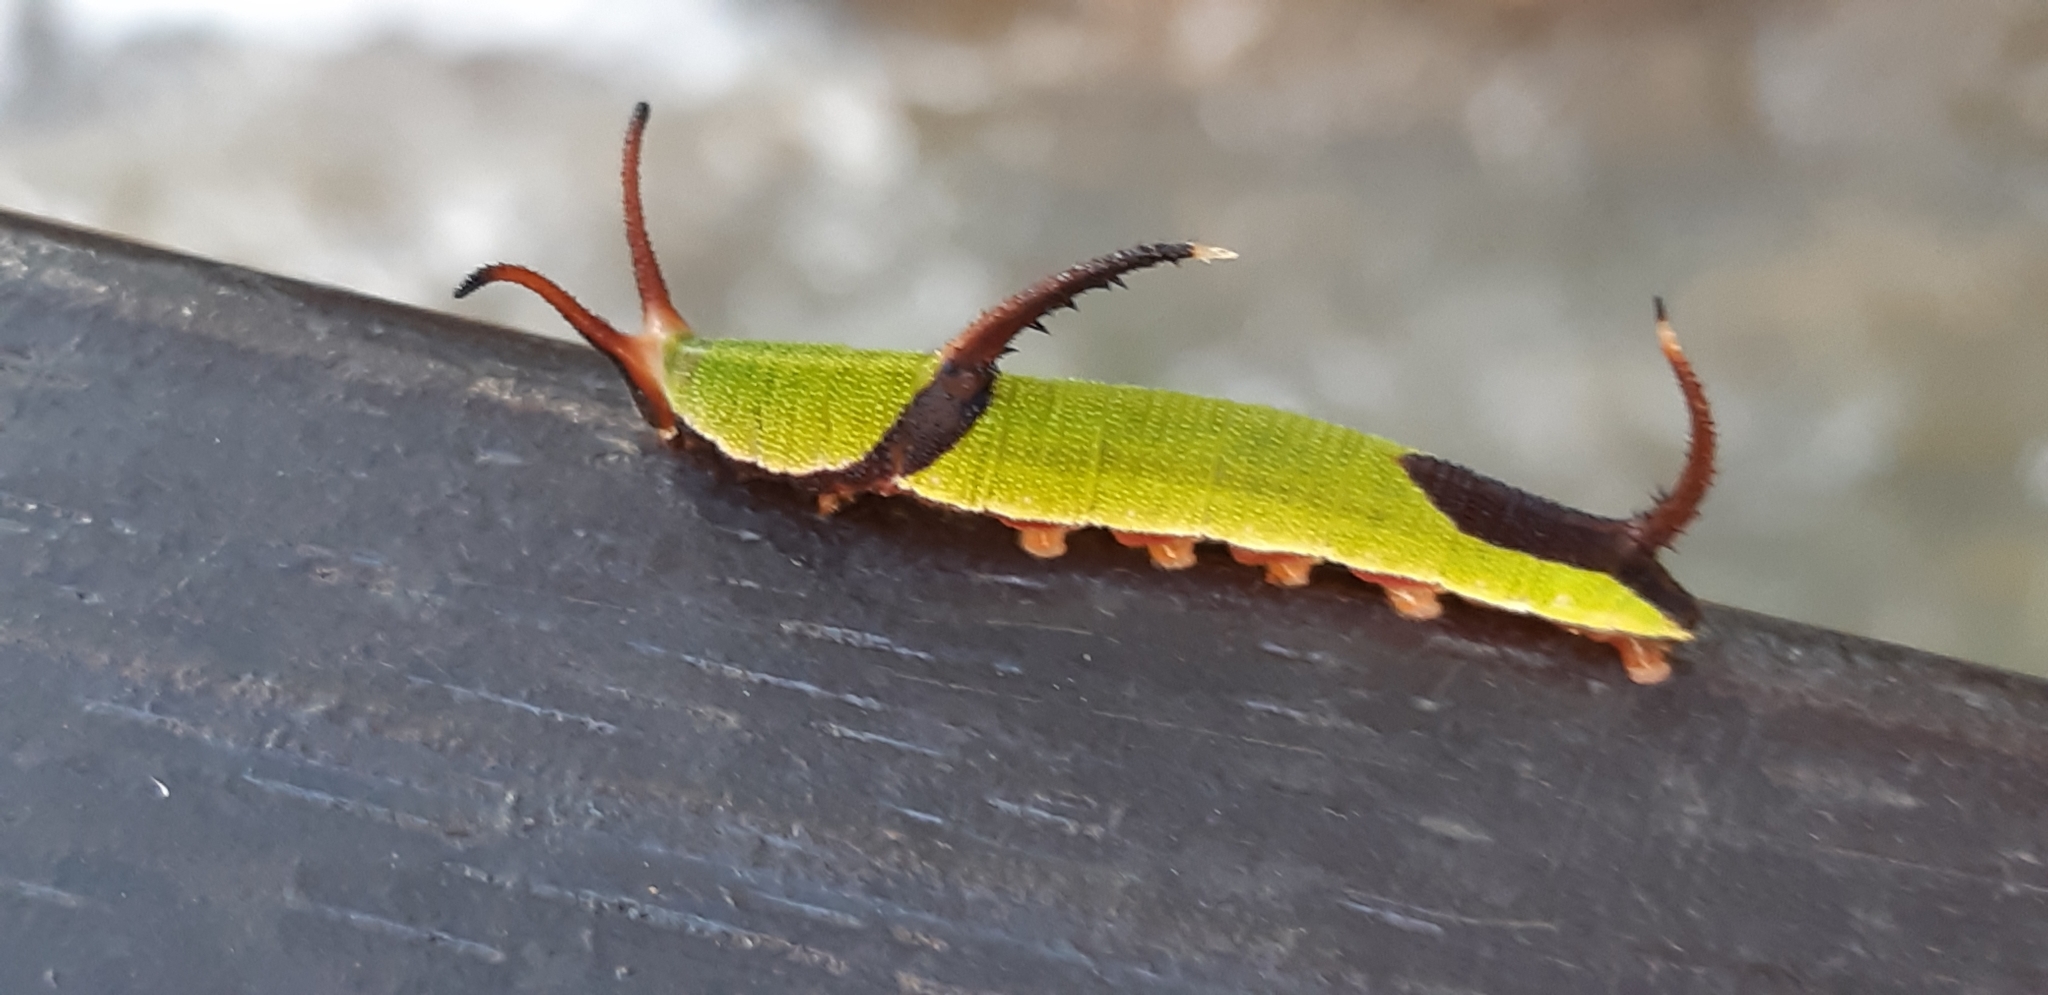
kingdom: Animalia
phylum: Arthropoda
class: Insecta
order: Lepidoptera
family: Nymphalidae
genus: Cyrestis
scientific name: Cyrestis thyodamas
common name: Common mapwing
